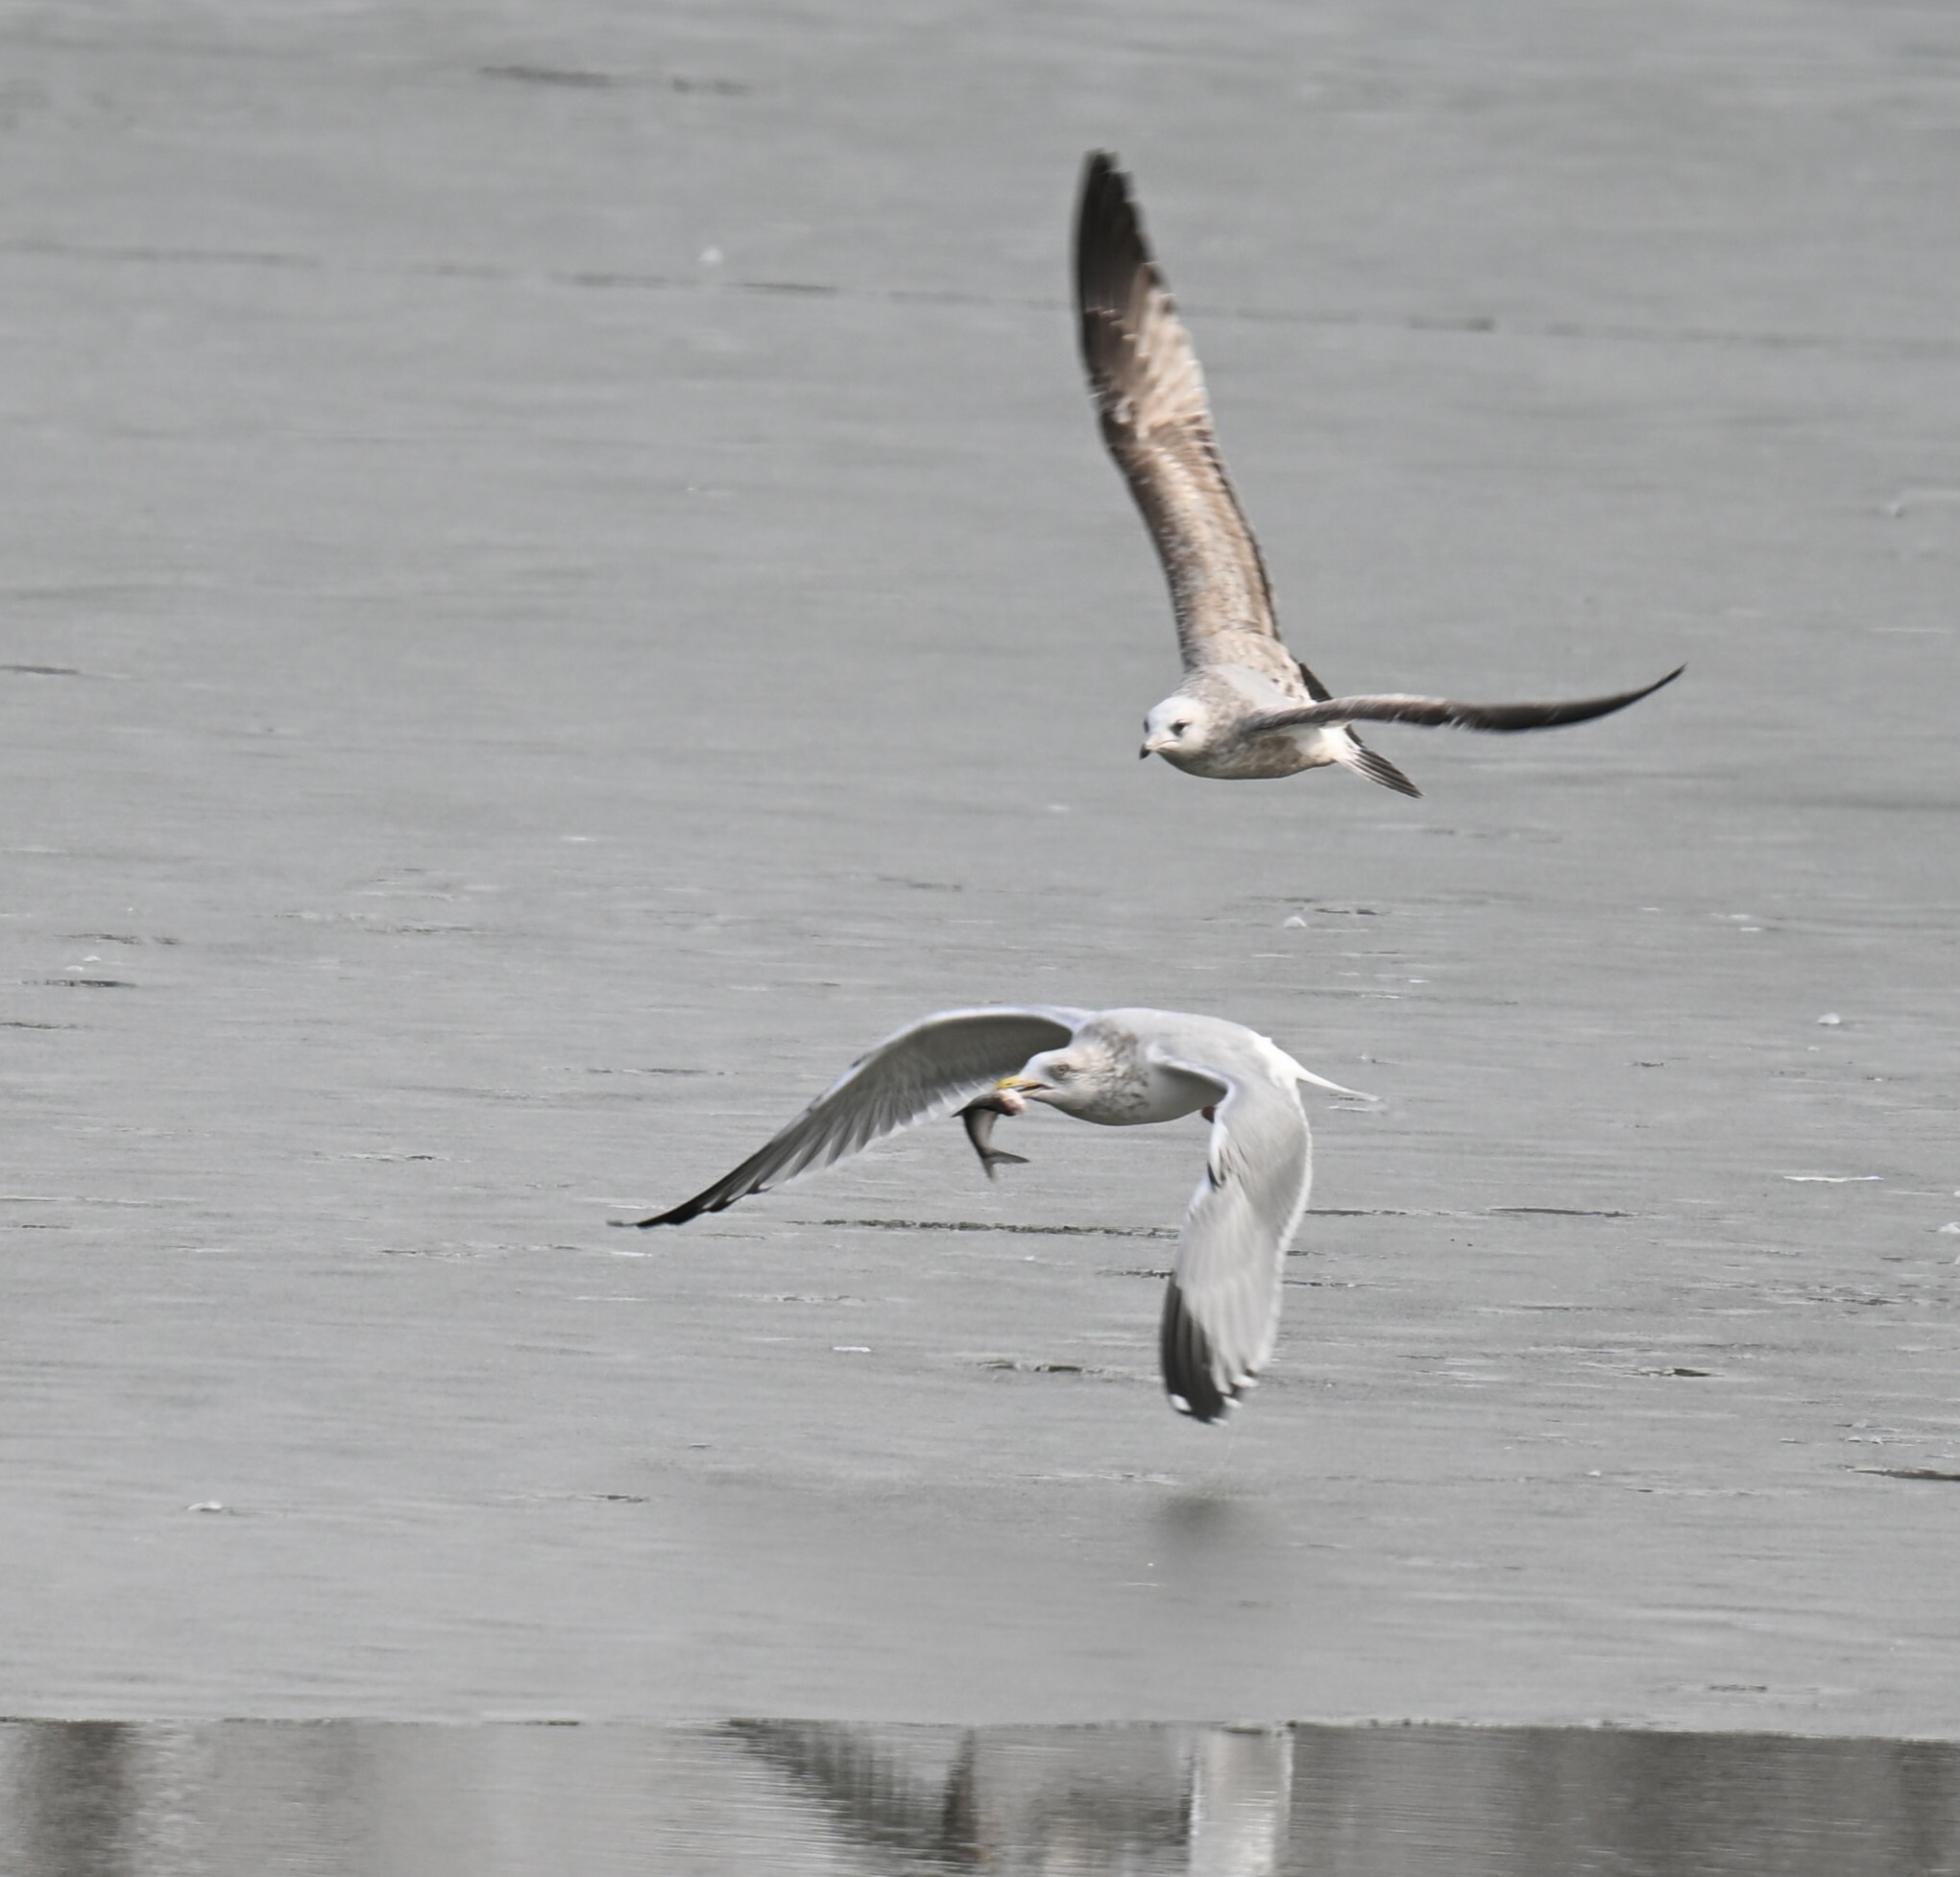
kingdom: Animalia
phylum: Chordata
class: Aves
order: Charadriiformes
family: Laridae
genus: Larus
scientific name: Larus argentatus
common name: Herring gull
